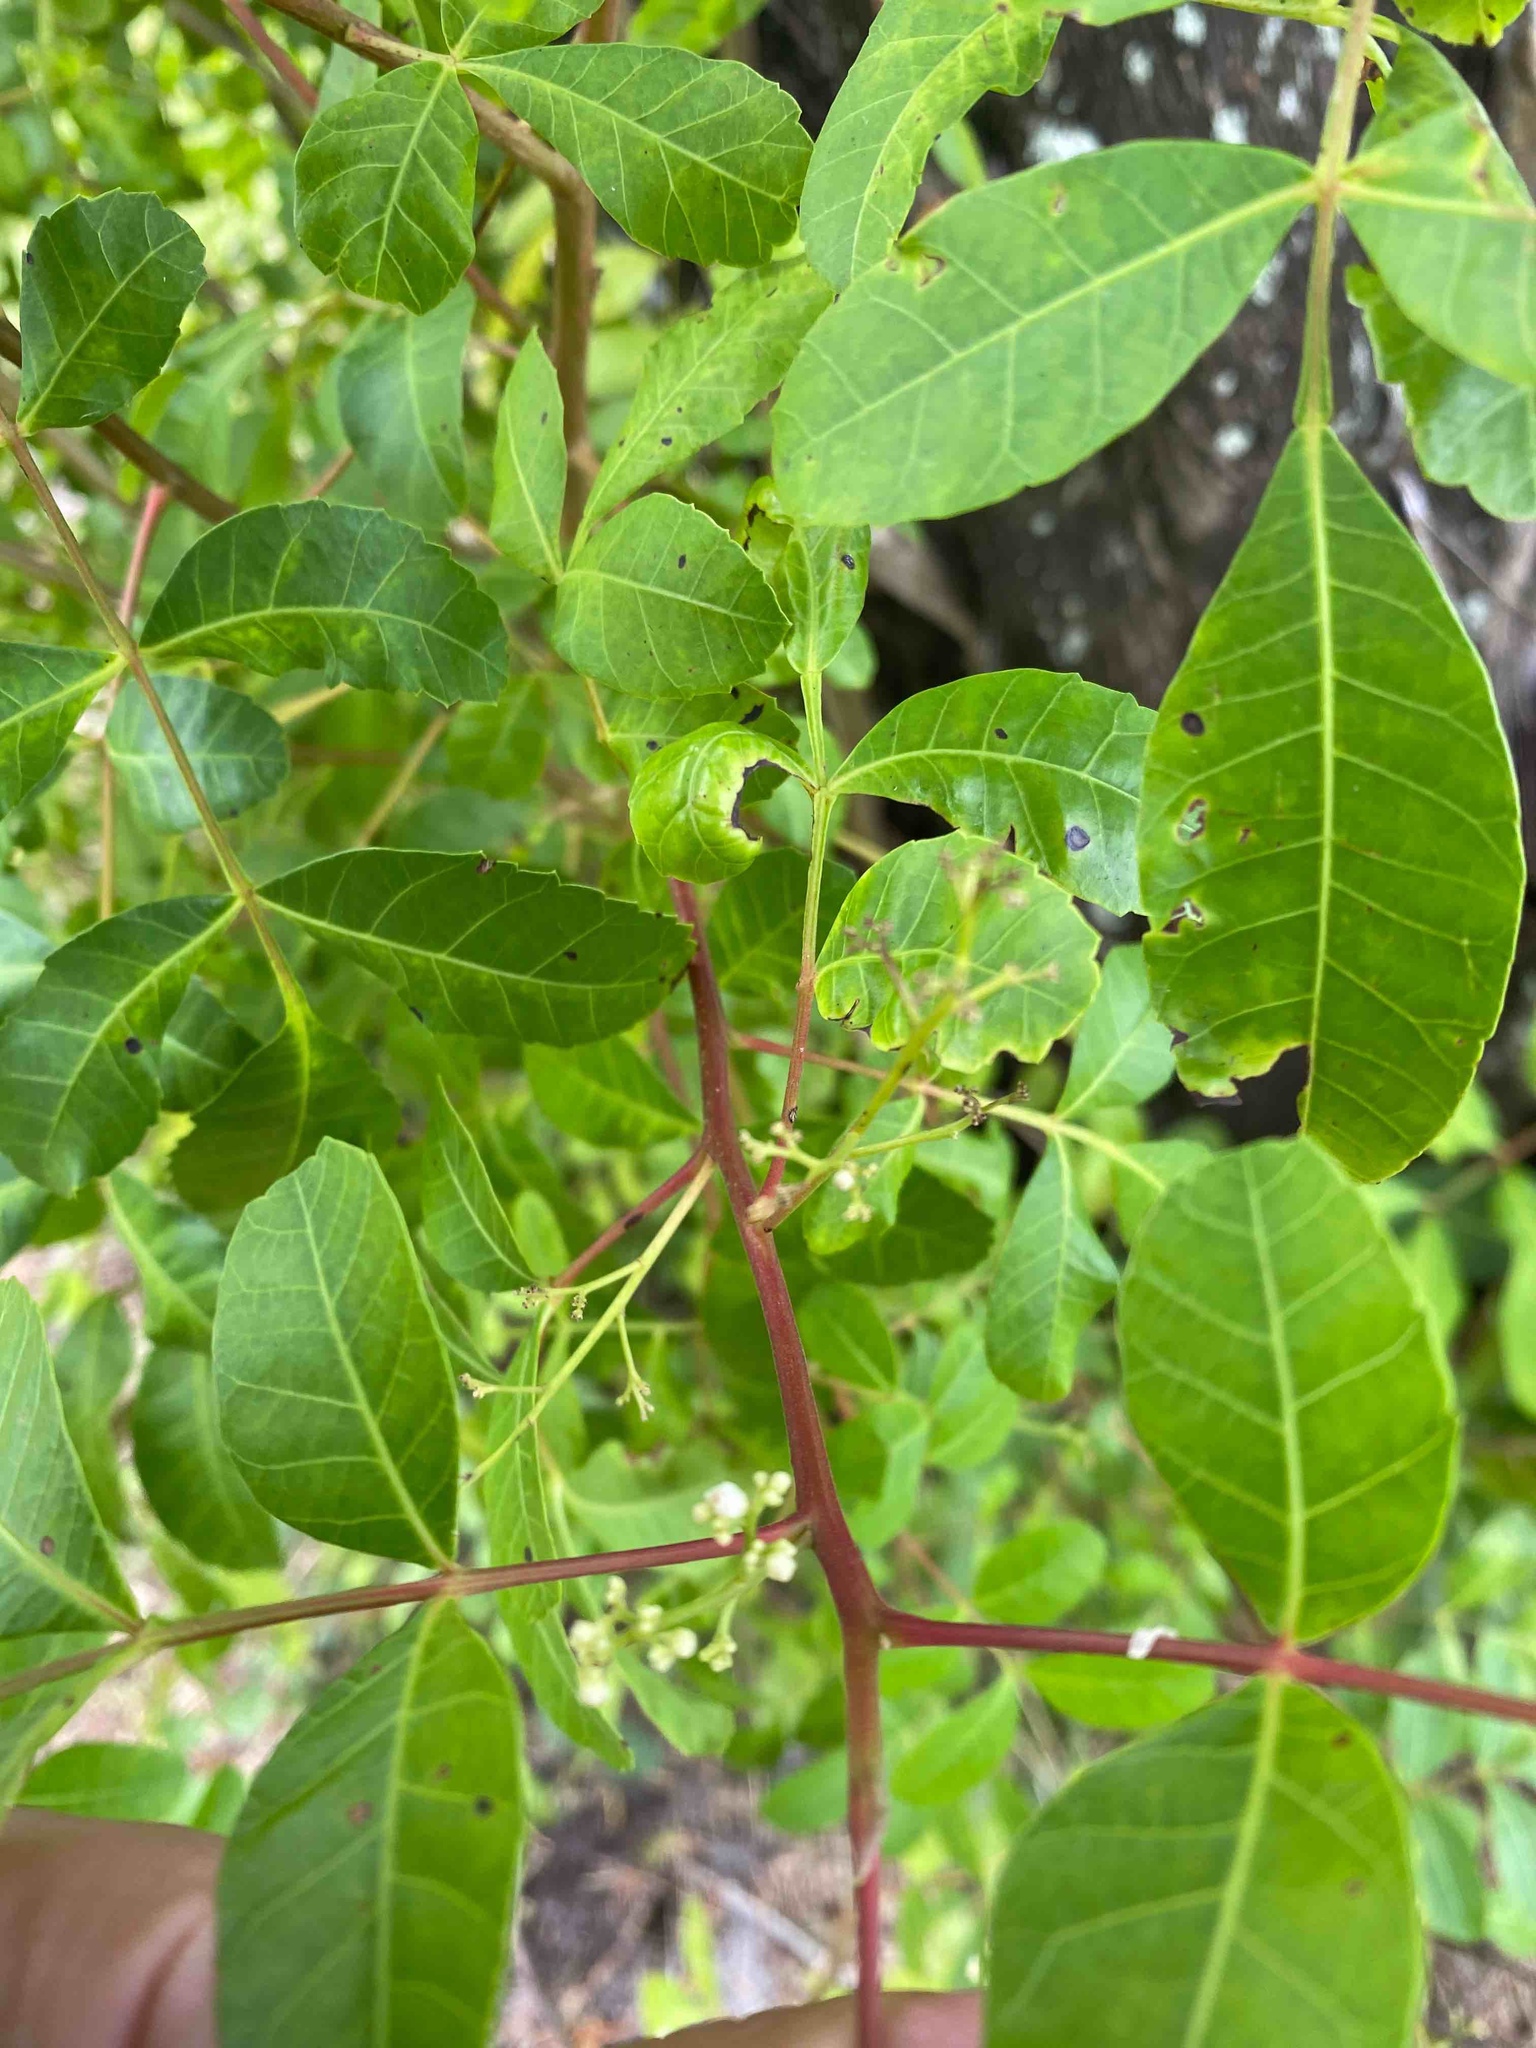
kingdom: Plantae
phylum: Tracheophyta
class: Magnoliopsida
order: Sapindales
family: Anacardiaceae
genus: Schinus
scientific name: Schinus terebinthifolia
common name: Brazilian peppertree
